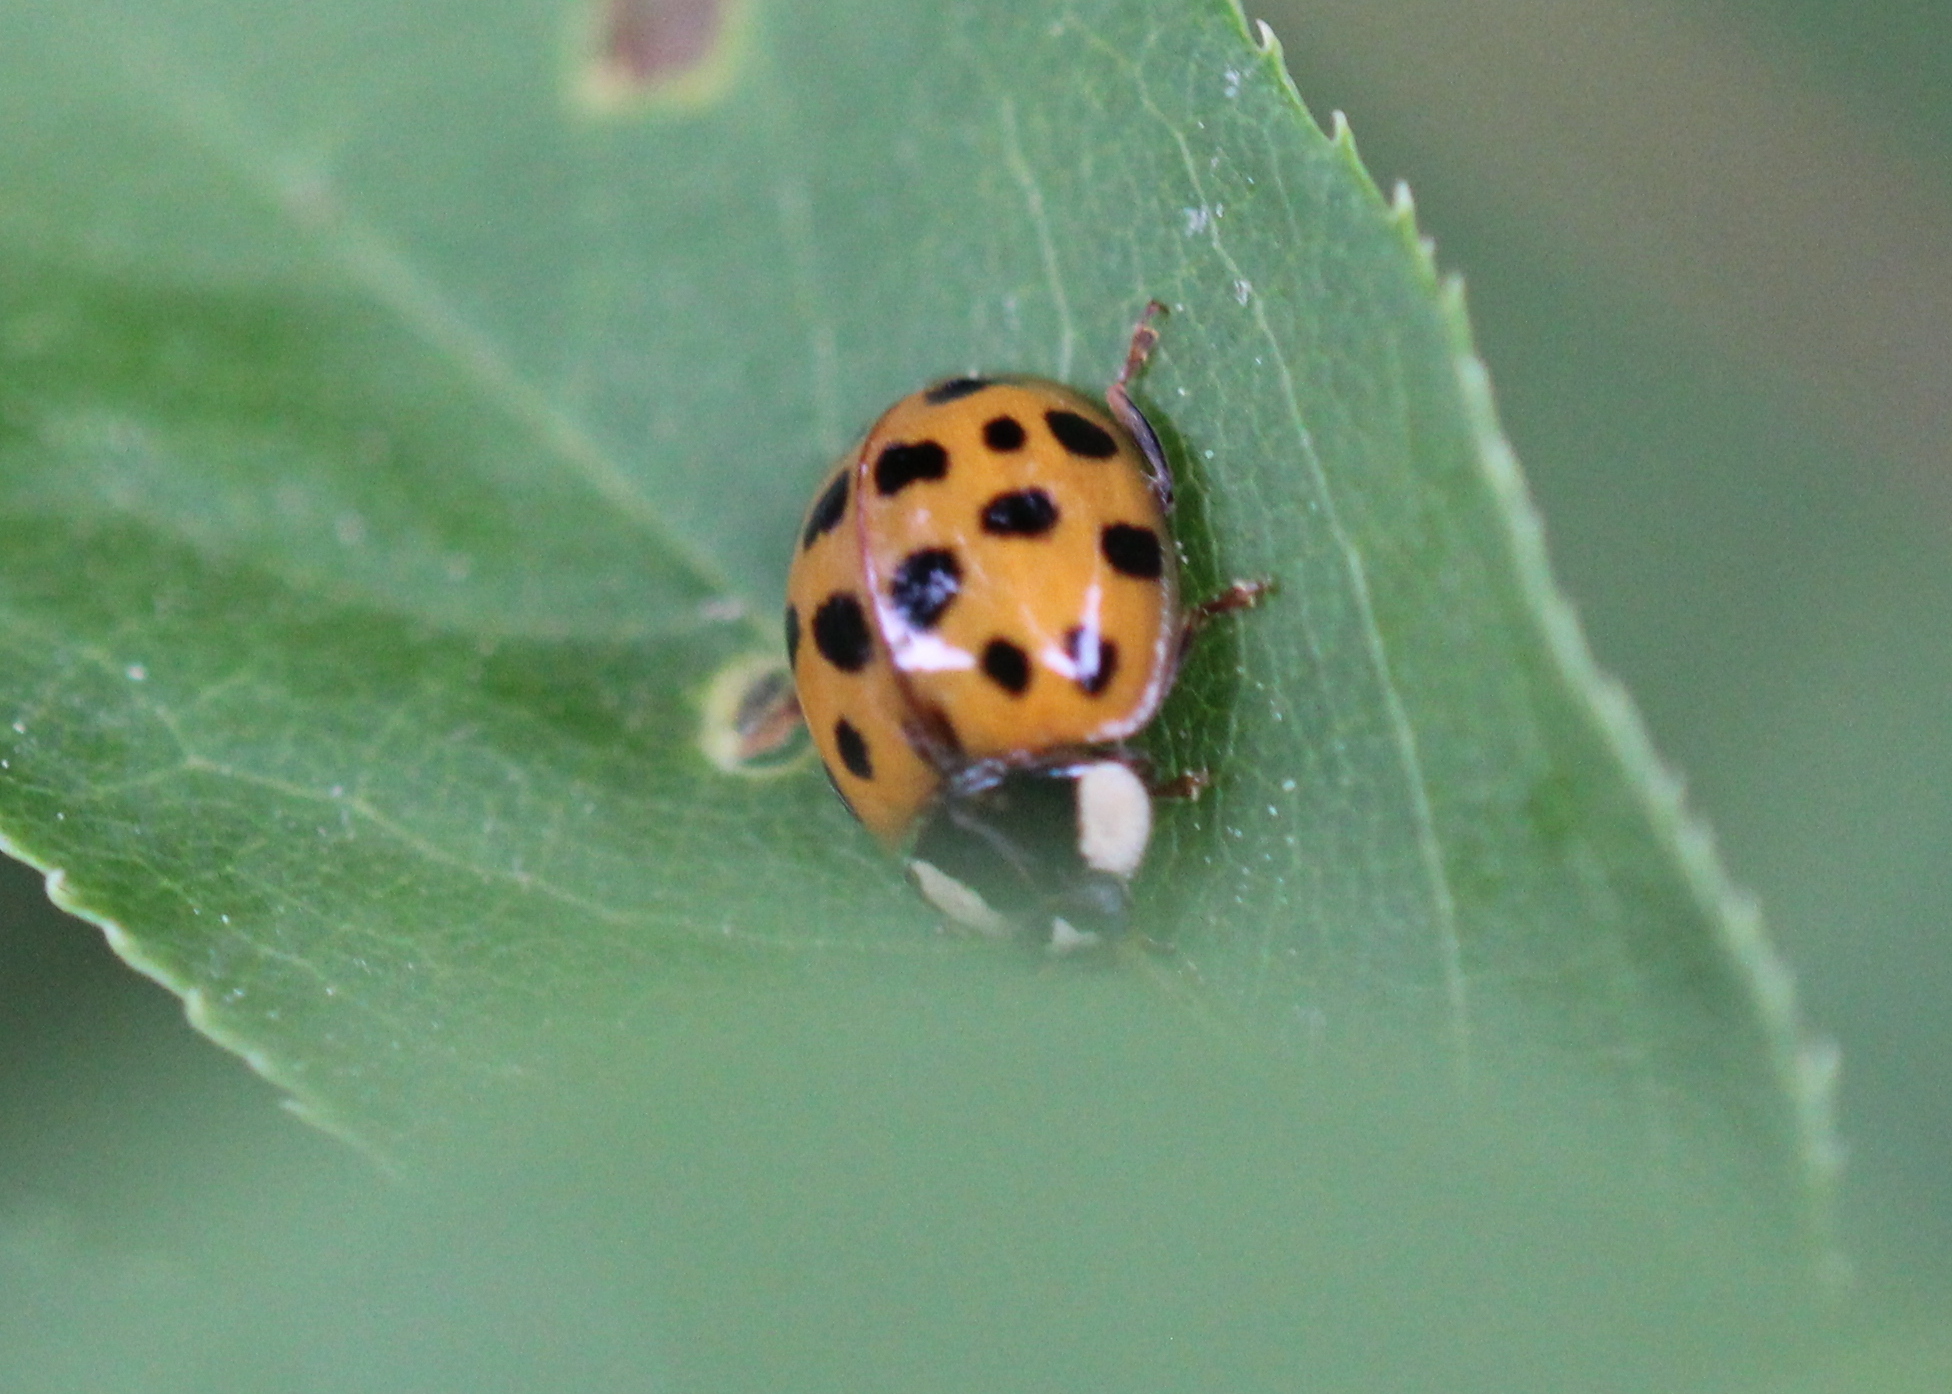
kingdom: Animalia
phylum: Arthropoda
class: Insecta
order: Coleoptera
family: Coccinellidae
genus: Harmonia
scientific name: Harmonia axyridis
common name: Harlequin ladybird
